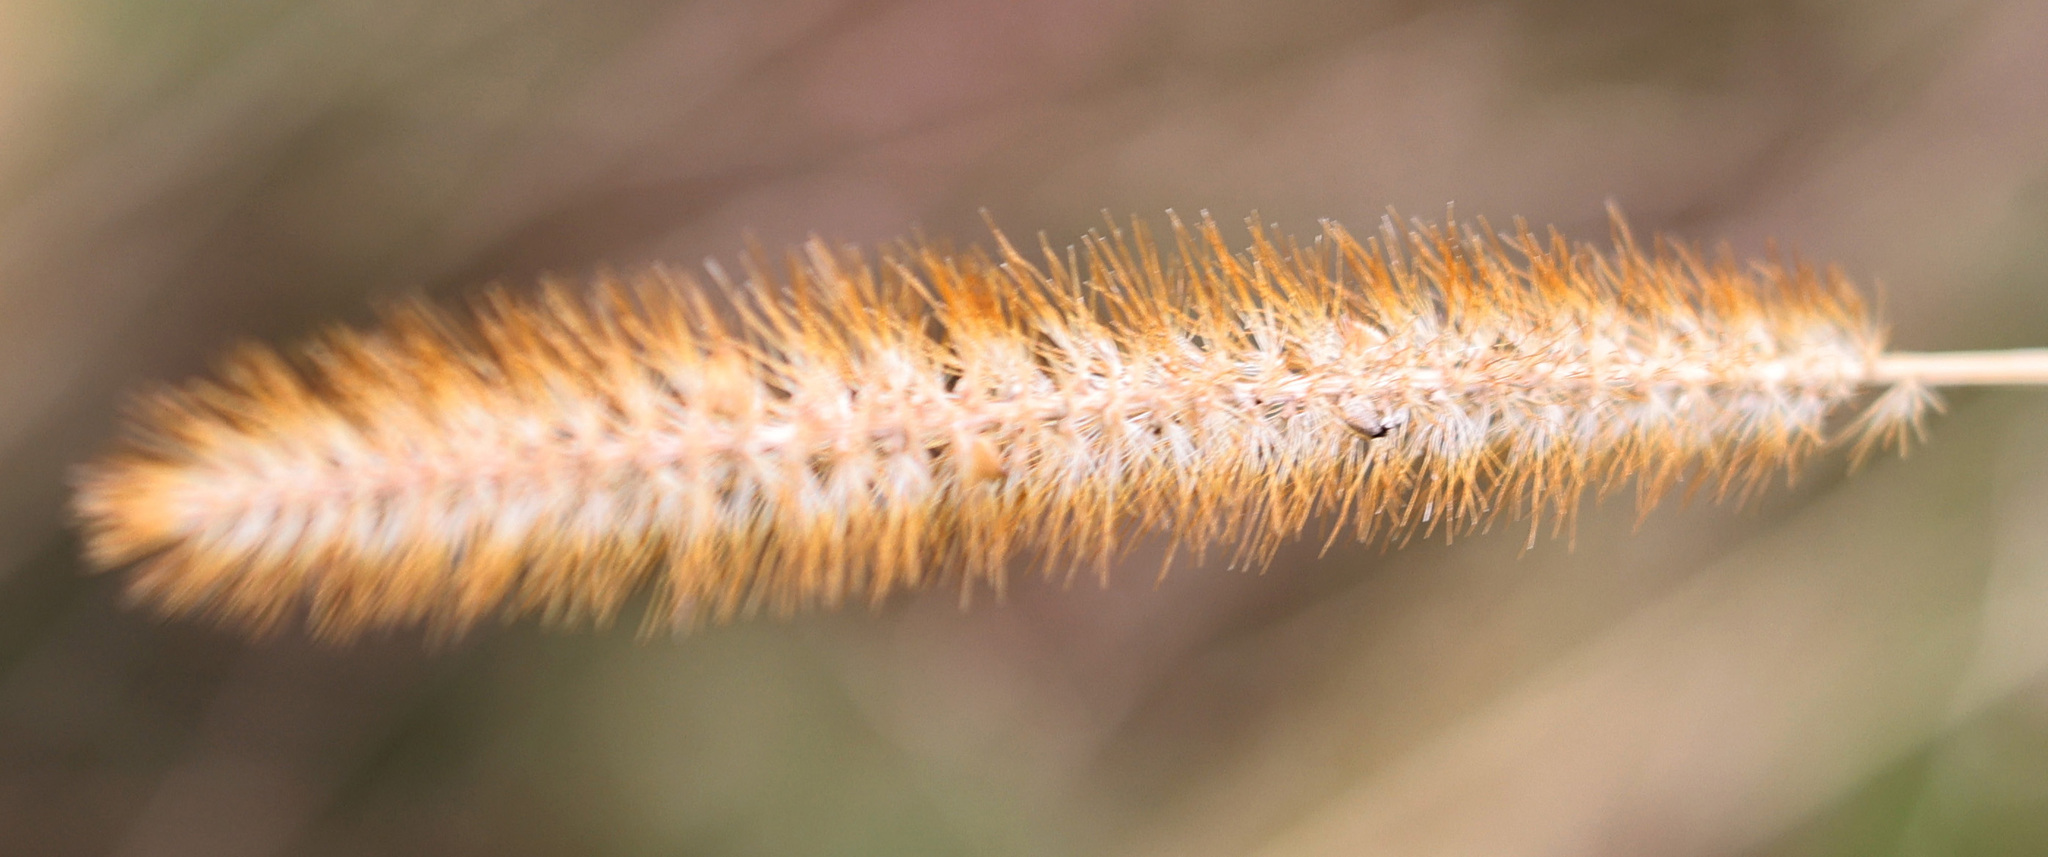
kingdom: Plantae
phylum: Tracheophyta
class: Liliopsida
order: Poales
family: Poaceae
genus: Setaria
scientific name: Setaria pumila
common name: Yellow bristle-grass
